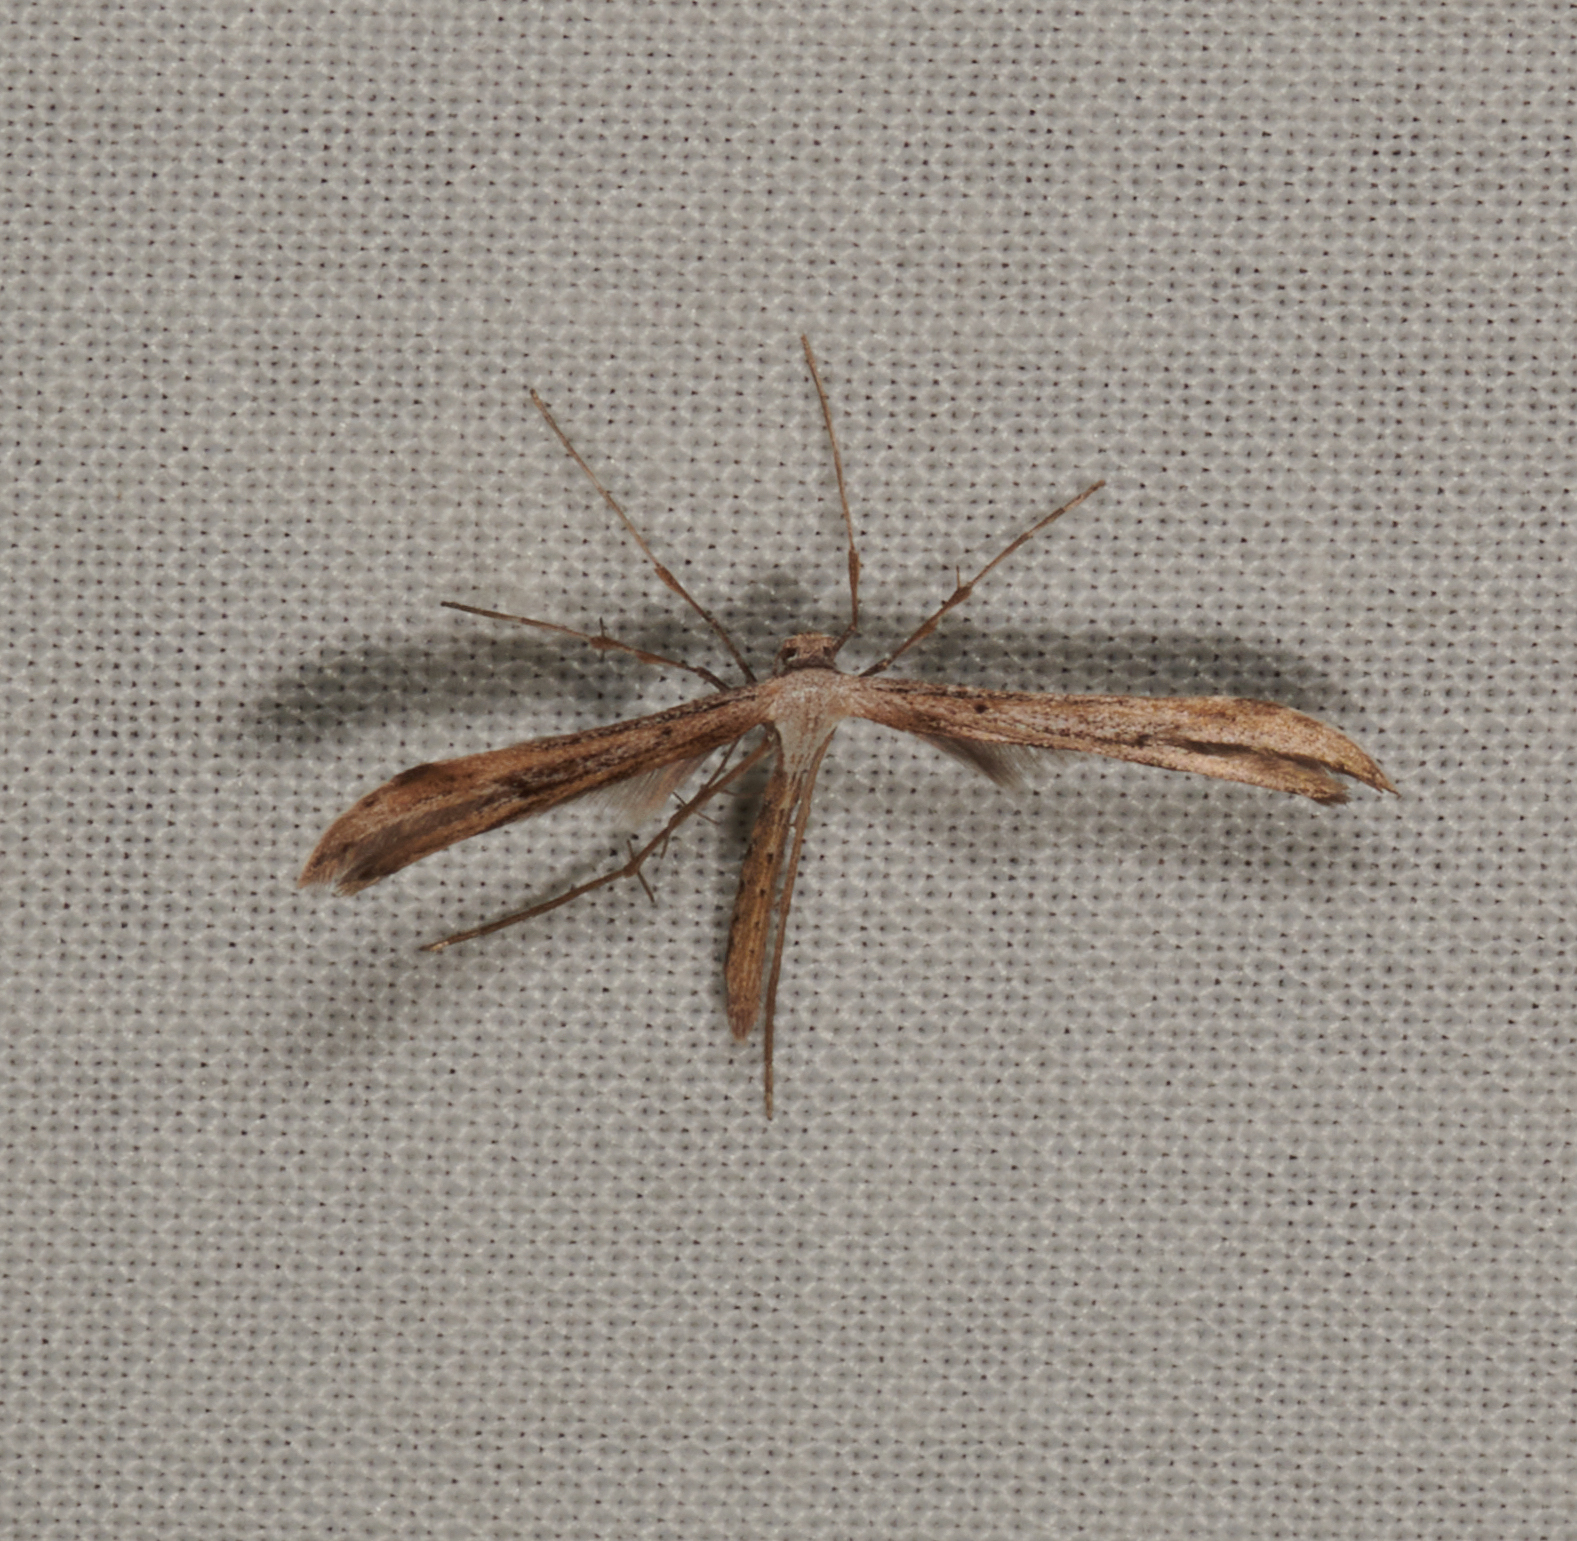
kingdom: Animalia
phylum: Arthropoda
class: Insecta
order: Lepidoptera
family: Pterophoridae
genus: Emmelina
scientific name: Emmelina monodactyla
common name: Common plume
